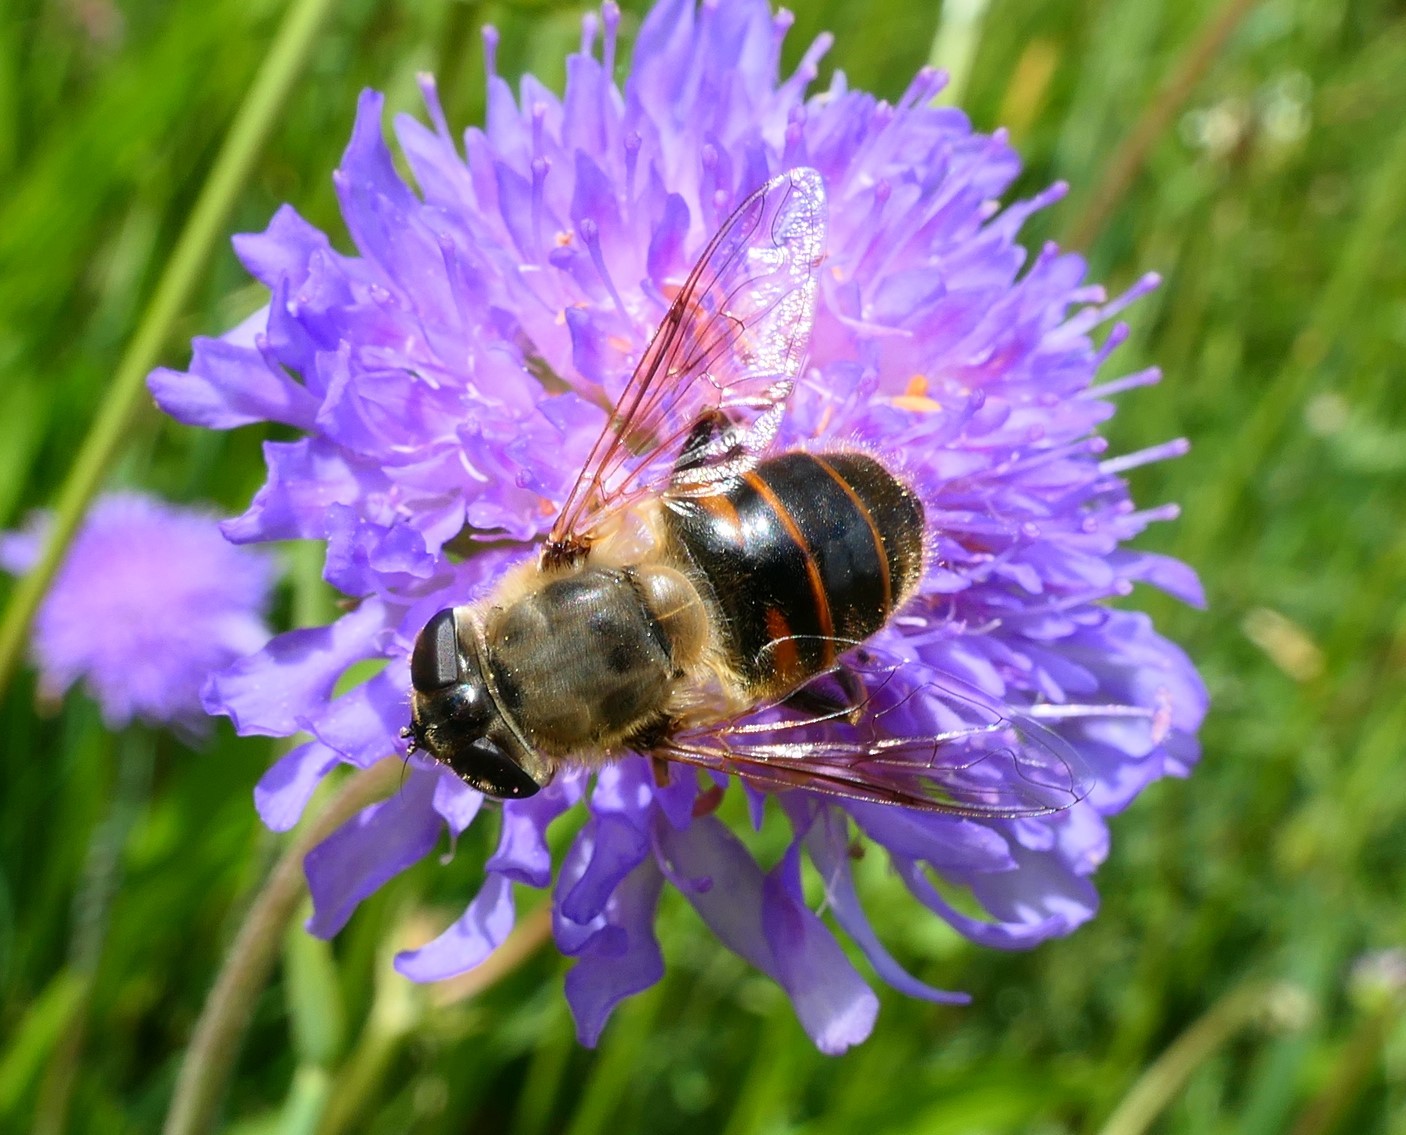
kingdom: Animalia
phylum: Arthropoda
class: Insecta
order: Diptera
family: Syrphidae
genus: Eristalis
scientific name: Eristalis tenax
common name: Drone fly
